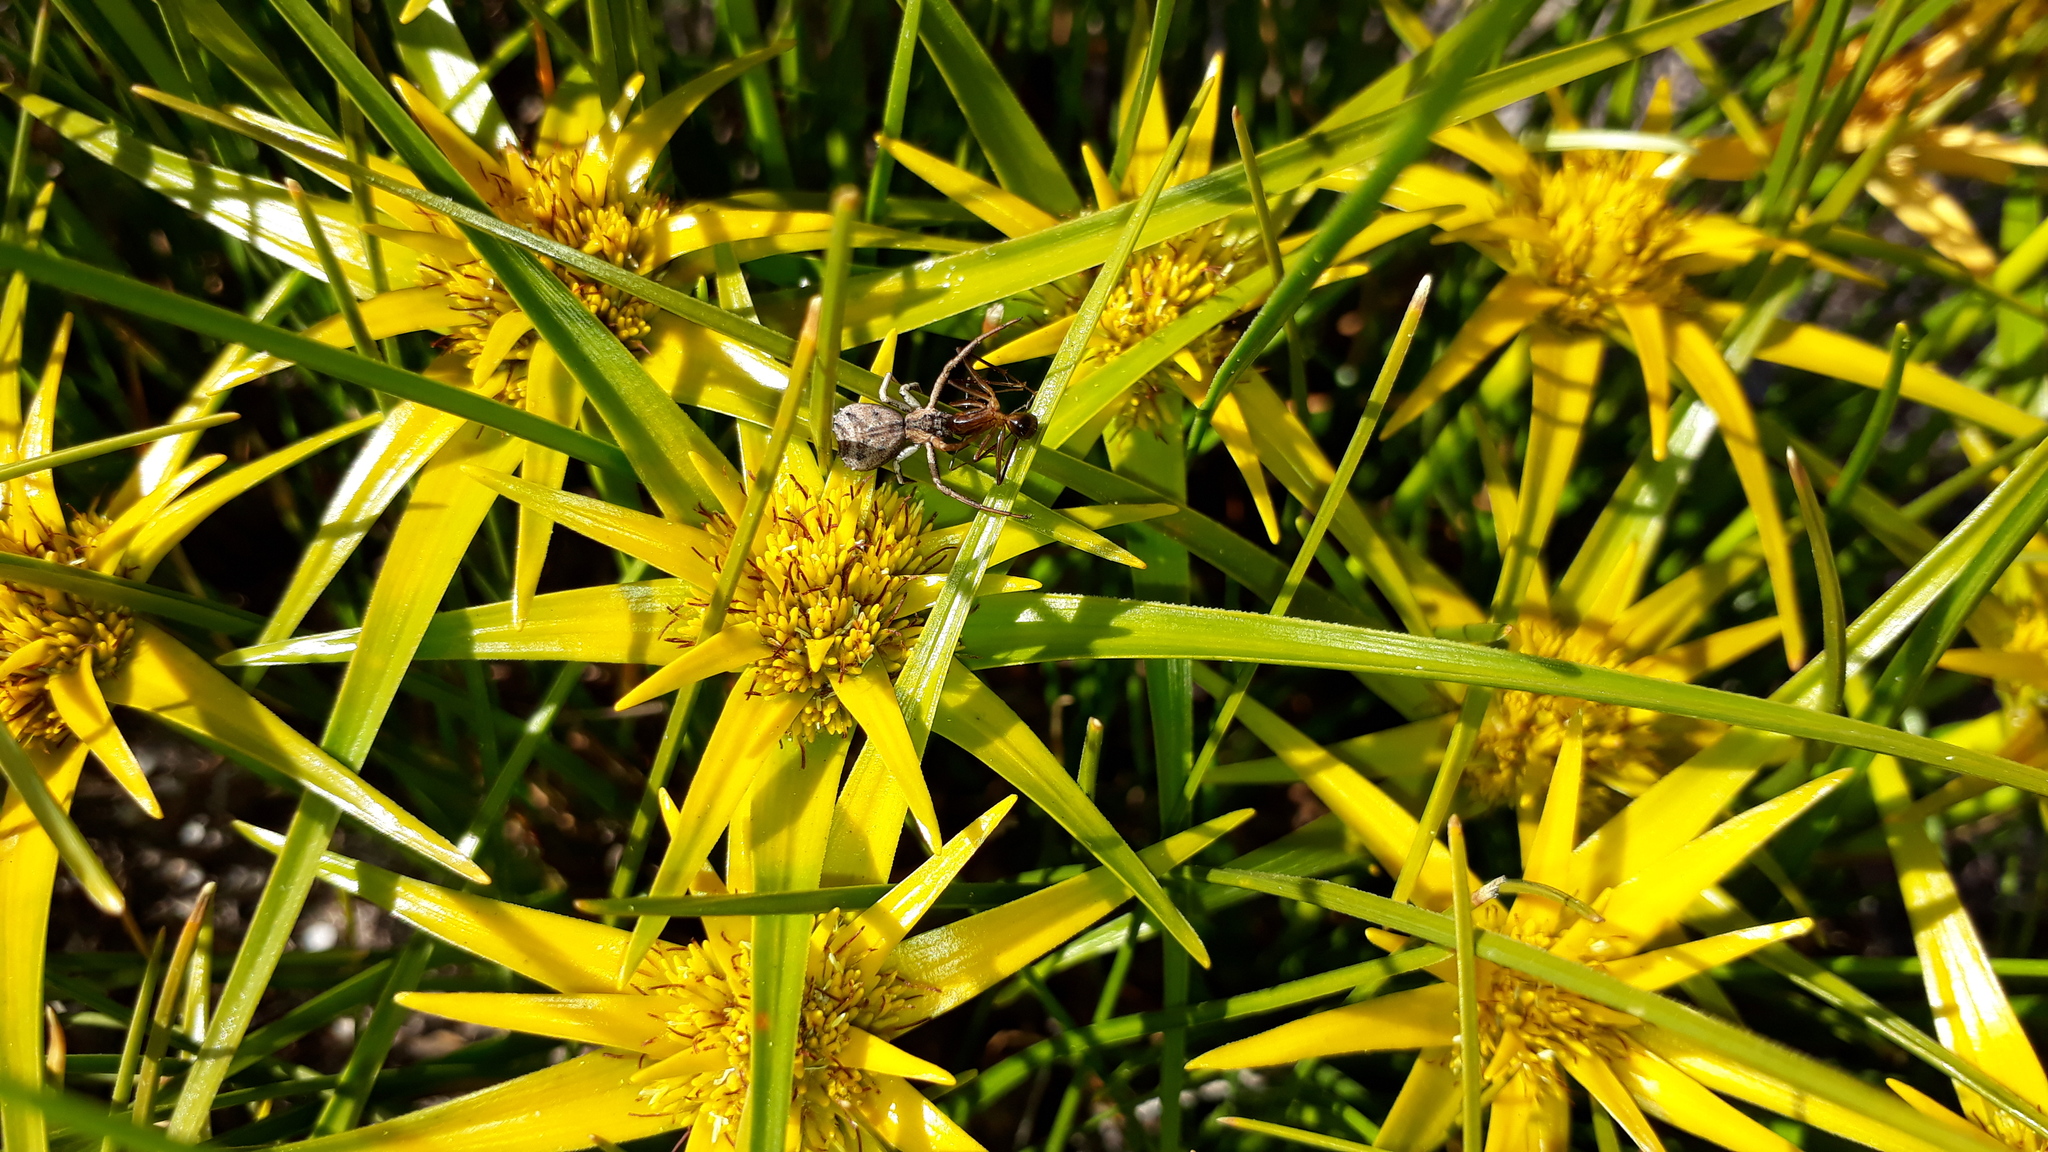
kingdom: Plantae
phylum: Tracheophyta
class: Liliopsida
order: Poales
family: Cyperaceae
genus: Ficinia
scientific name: Ficinia radiata
